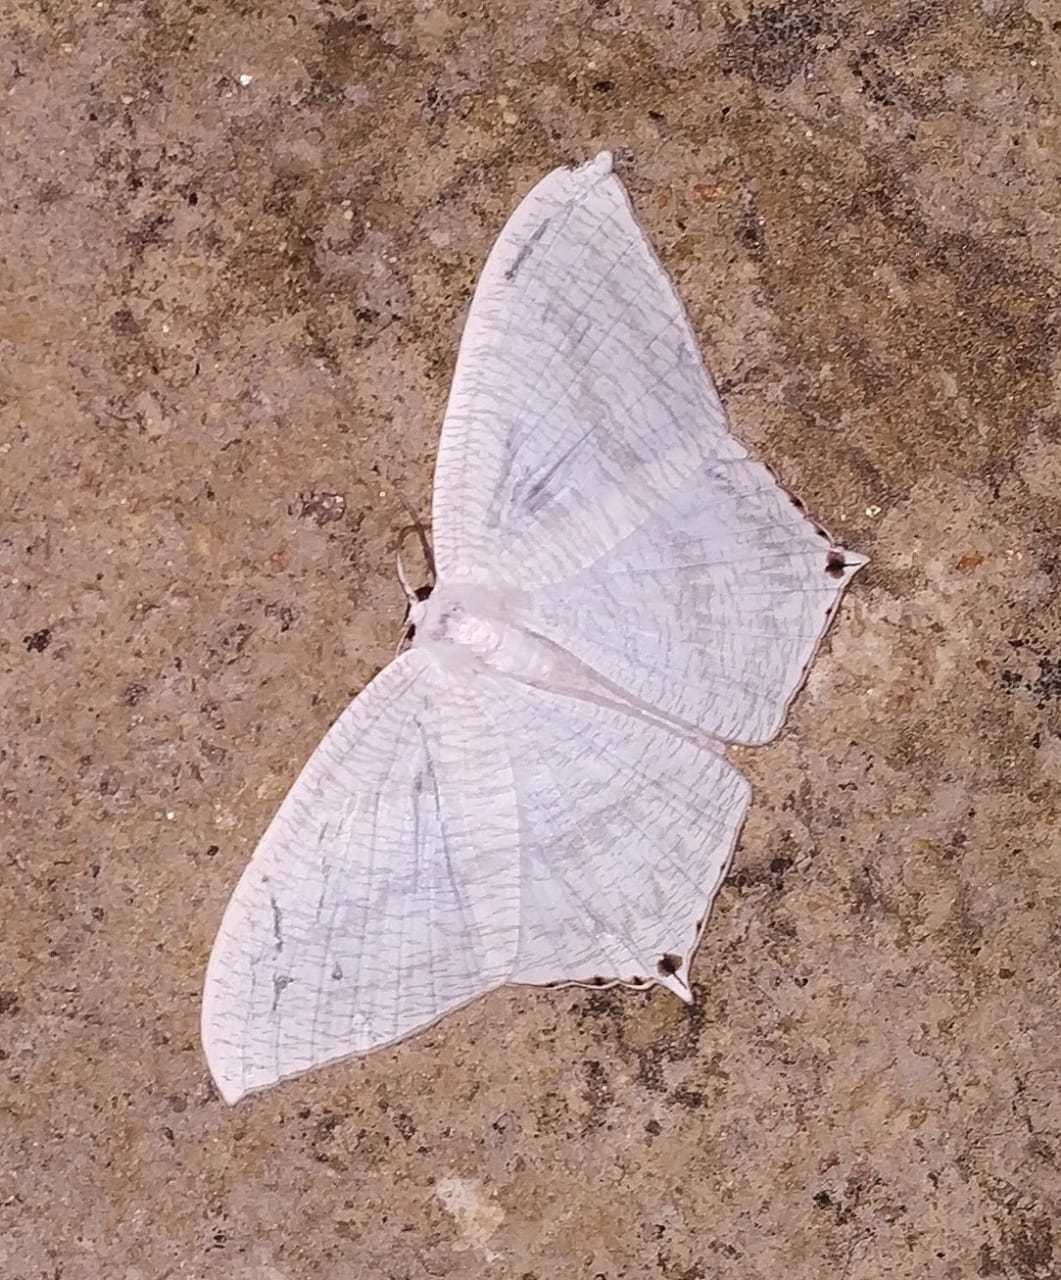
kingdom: Animalia
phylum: Arthropoda
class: Insecta
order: Lepidoptera
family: Uraniidae
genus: Micronia
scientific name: Micronia aculeata
